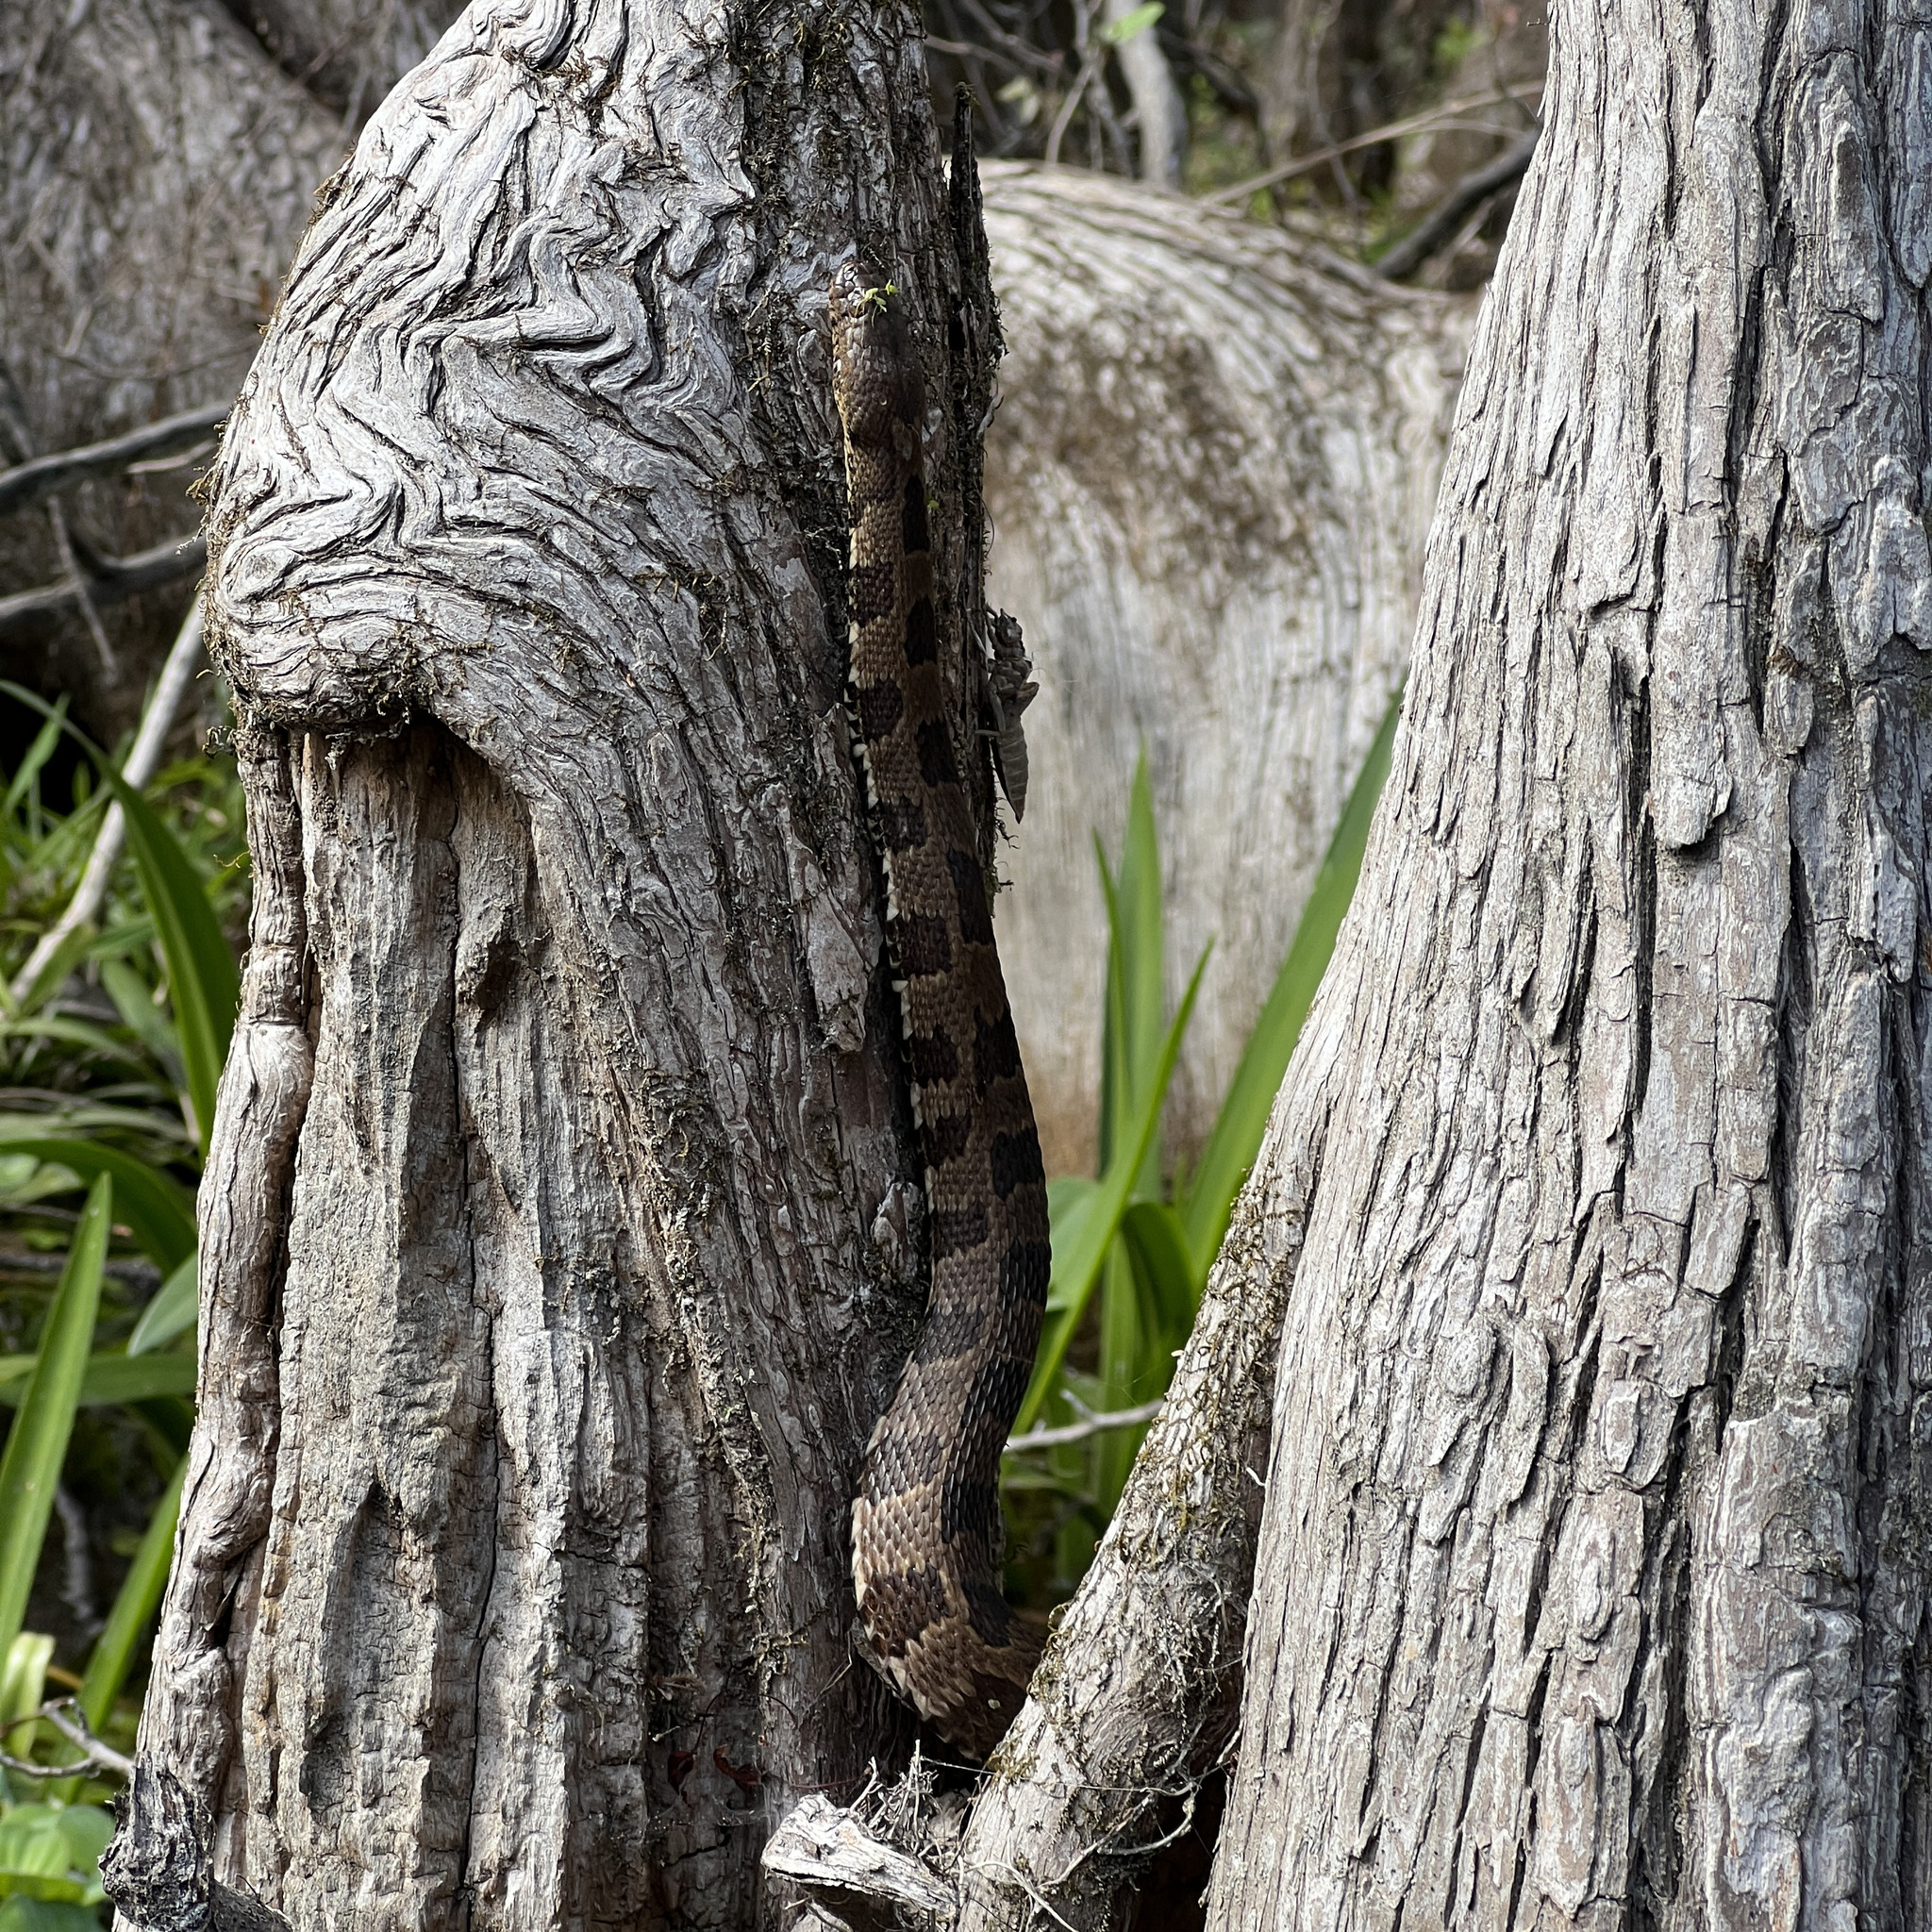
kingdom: Animalia
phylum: Chordata
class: Squamata
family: Colubridae
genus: Nerodia
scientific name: Nerodia taxispilota
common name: Brown water snake
